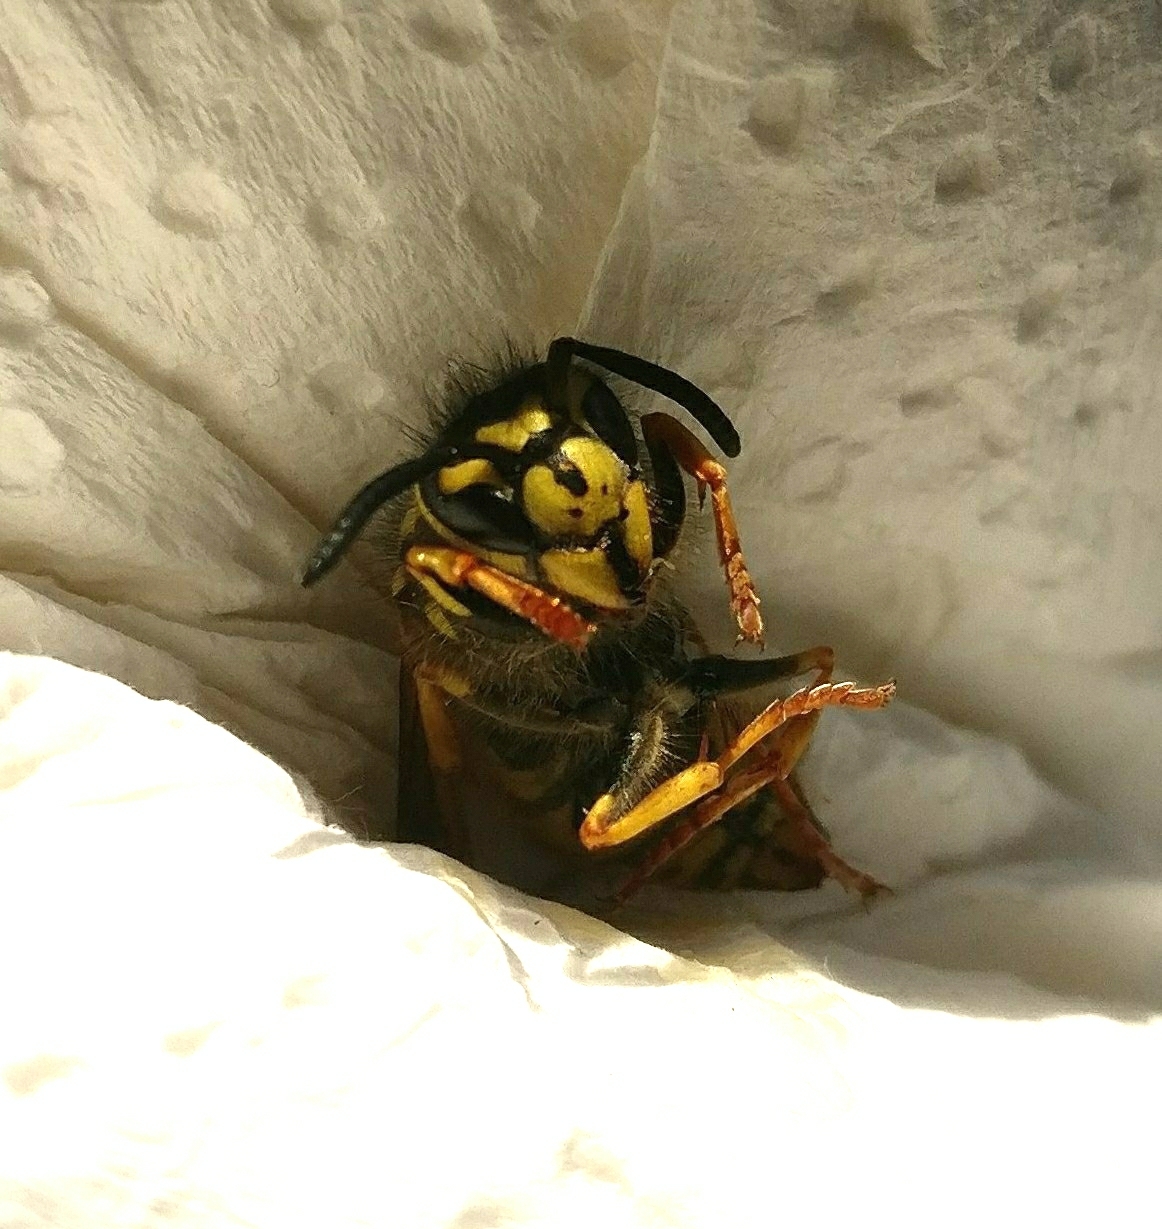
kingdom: Animalia
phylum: Arthropoda
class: Insecta
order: Hymenoptera
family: Vespidae
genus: Vespula
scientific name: Vespula germanica
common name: German wasp
